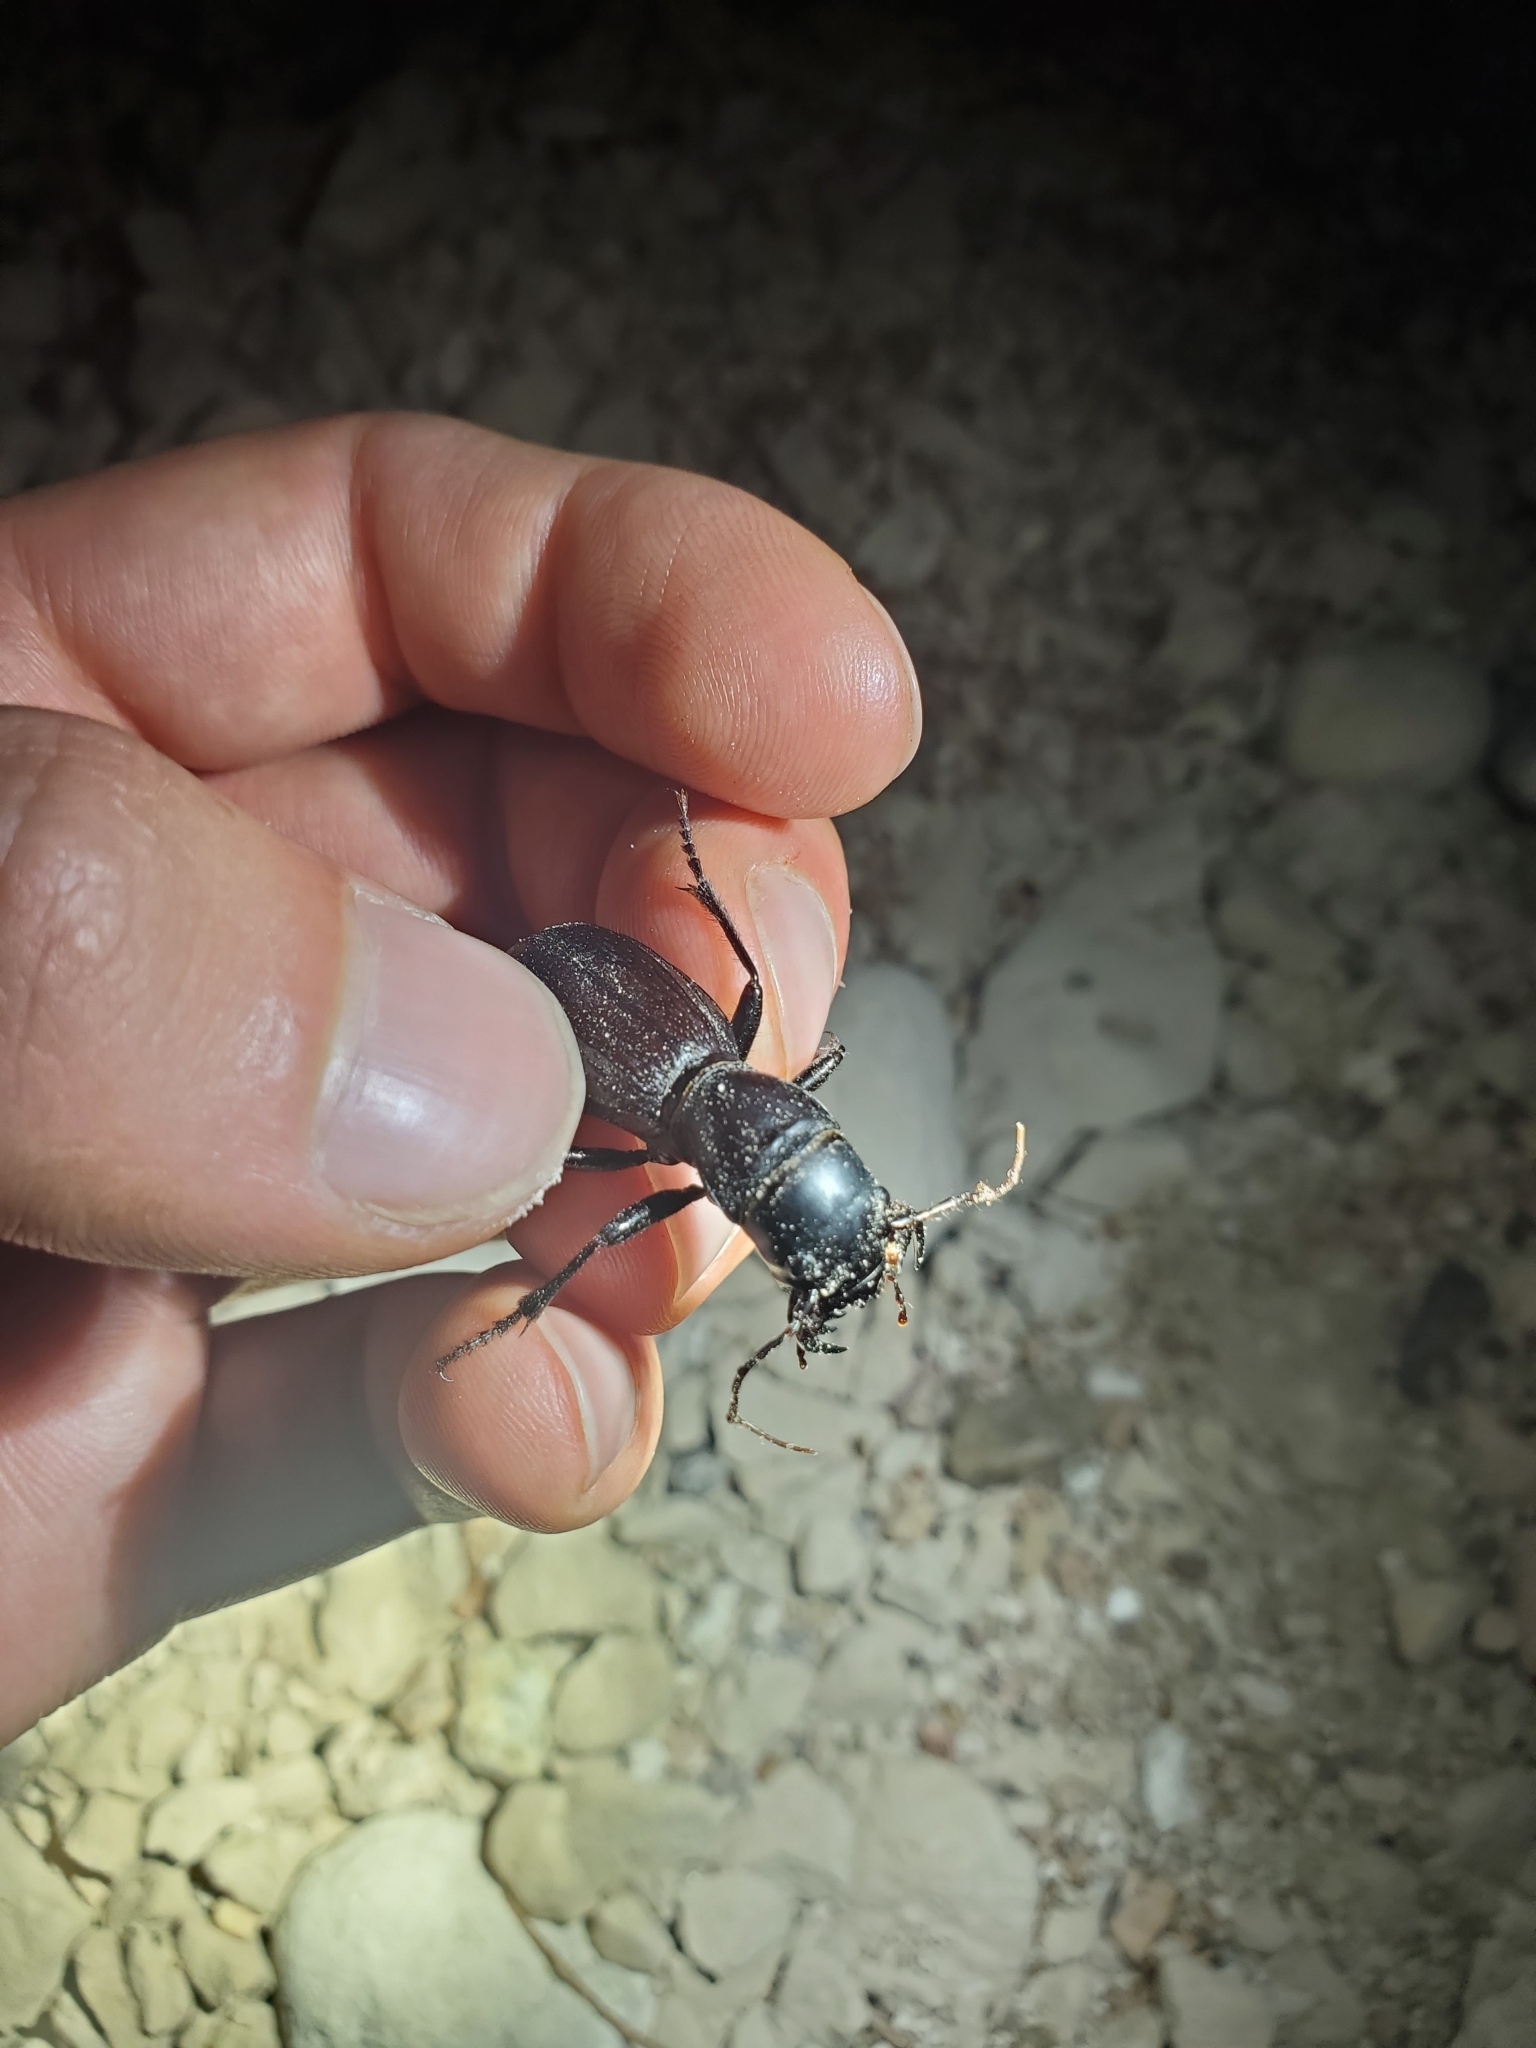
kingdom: Animalia
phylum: Arthropoda
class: Insecta
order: Coleoptera
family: Carabidae
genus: Amblycheila
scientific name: Amblycheila cylindriformis
